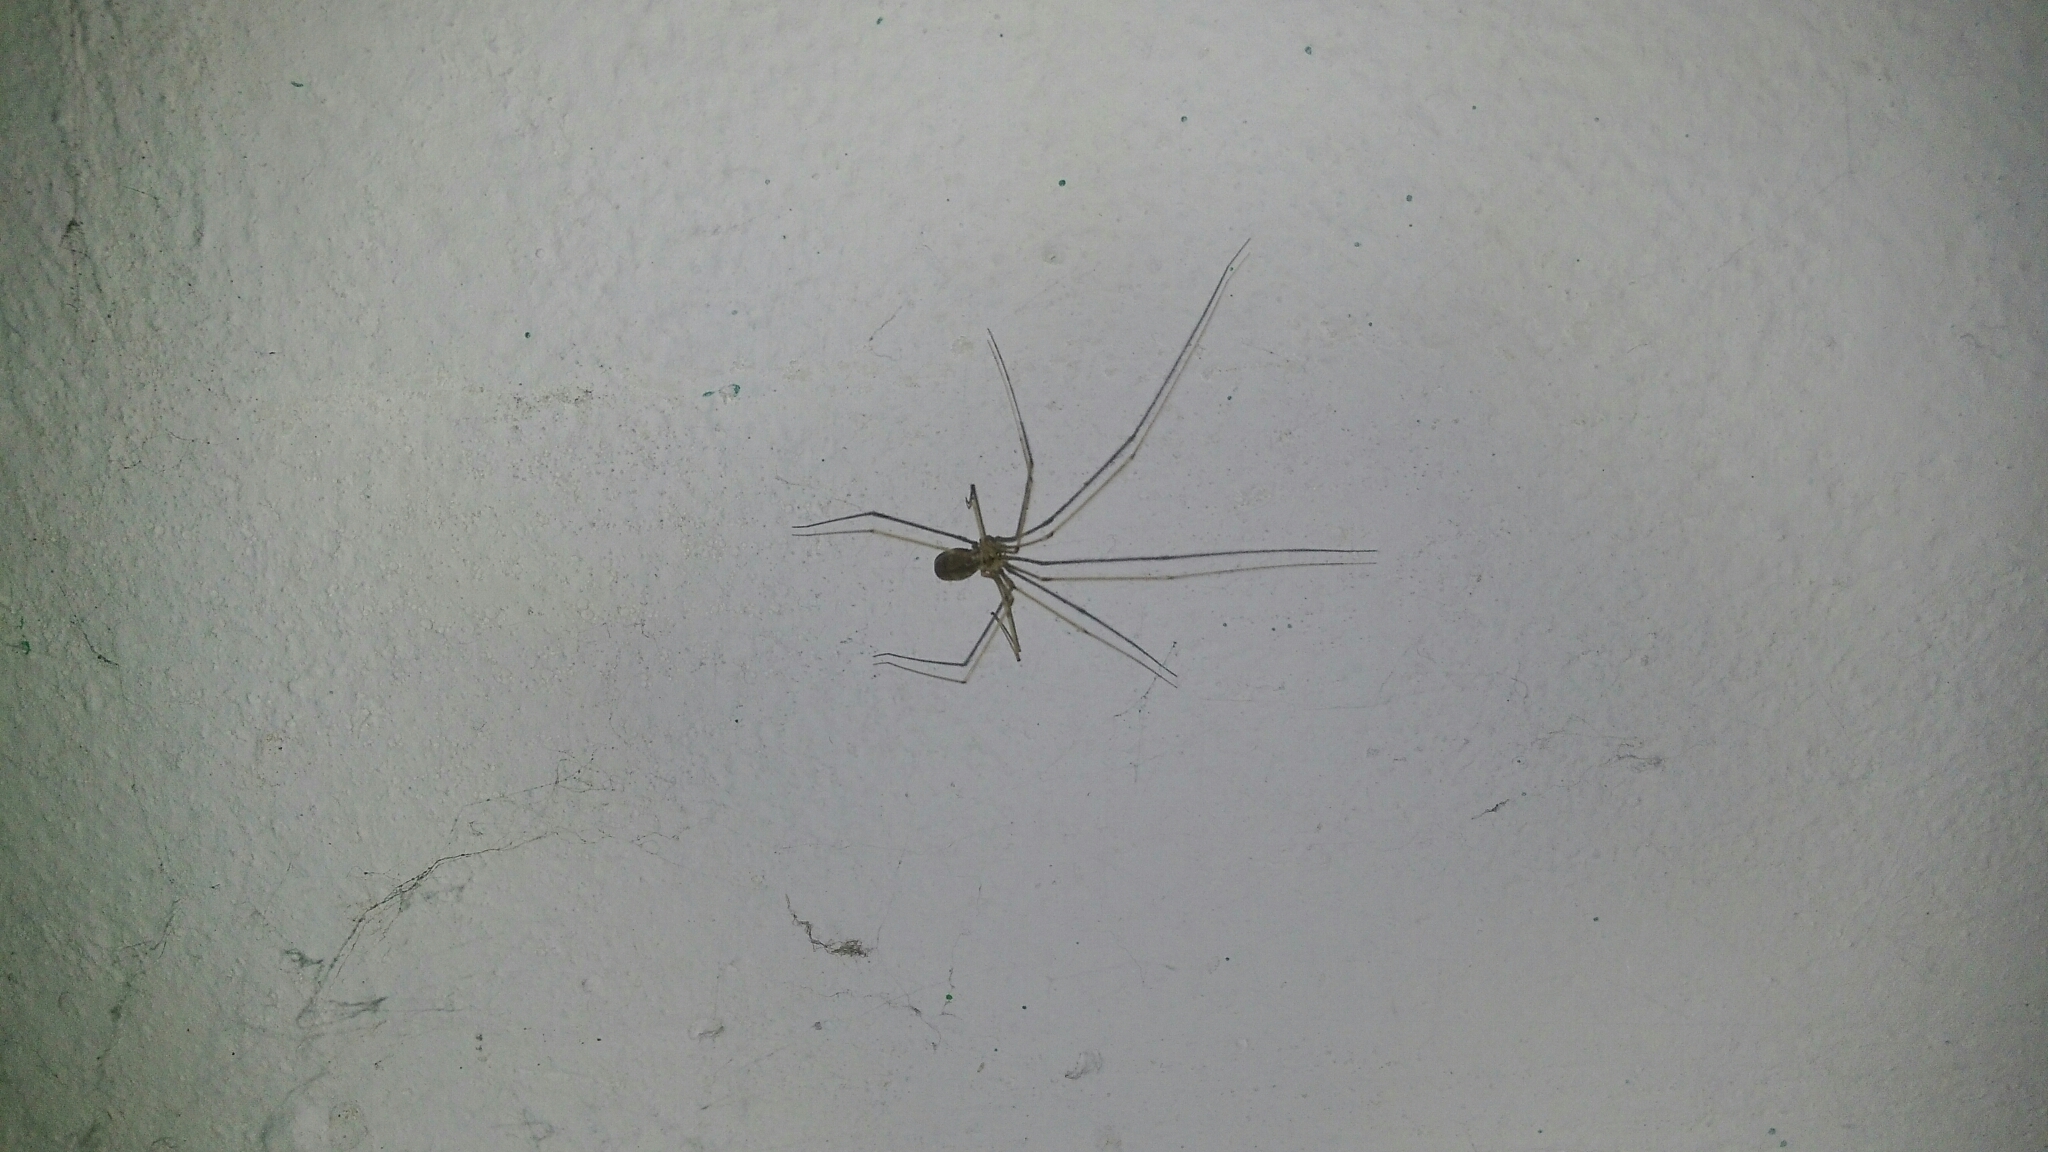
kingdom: Animalia
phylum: Arthropoda
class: Arachnida
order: Araneae
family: Pholcidae
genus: Pholcus
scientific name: Pholcus phalangioides
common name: Longbodied cellar spider
